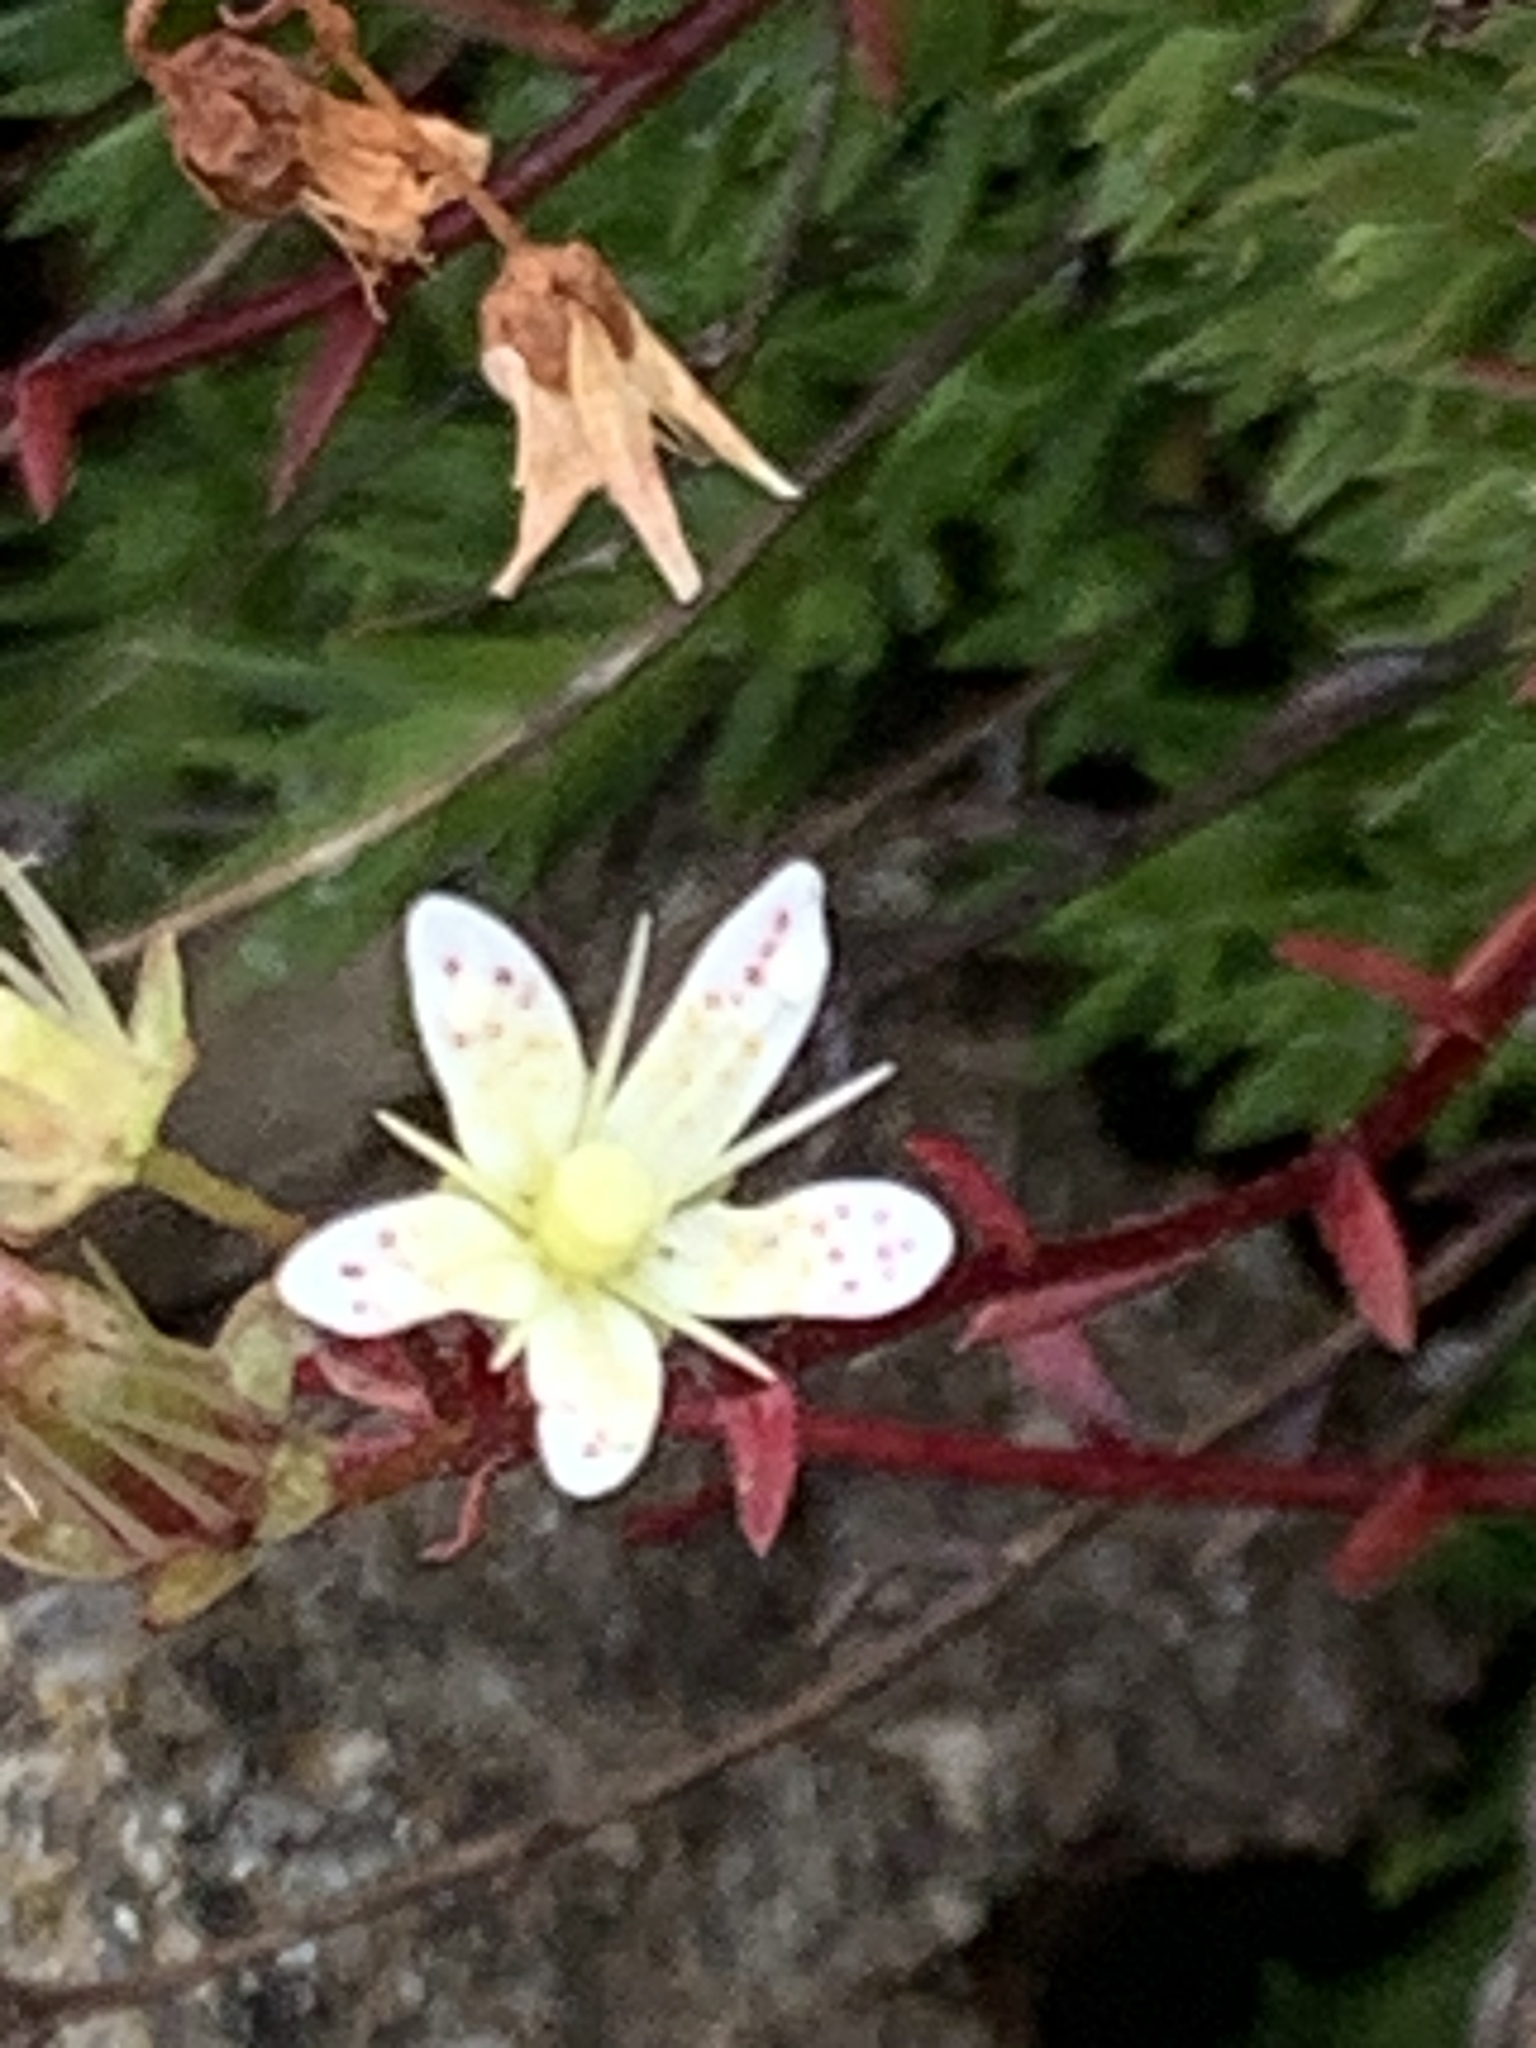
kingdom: Plantae
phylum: Tracheophyta
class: Magnoliopsida
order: Saxifragales
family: Saxifragaceae
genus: Saxifraga
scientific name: Saxifraga bronchialis
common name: Matted saxifrage
